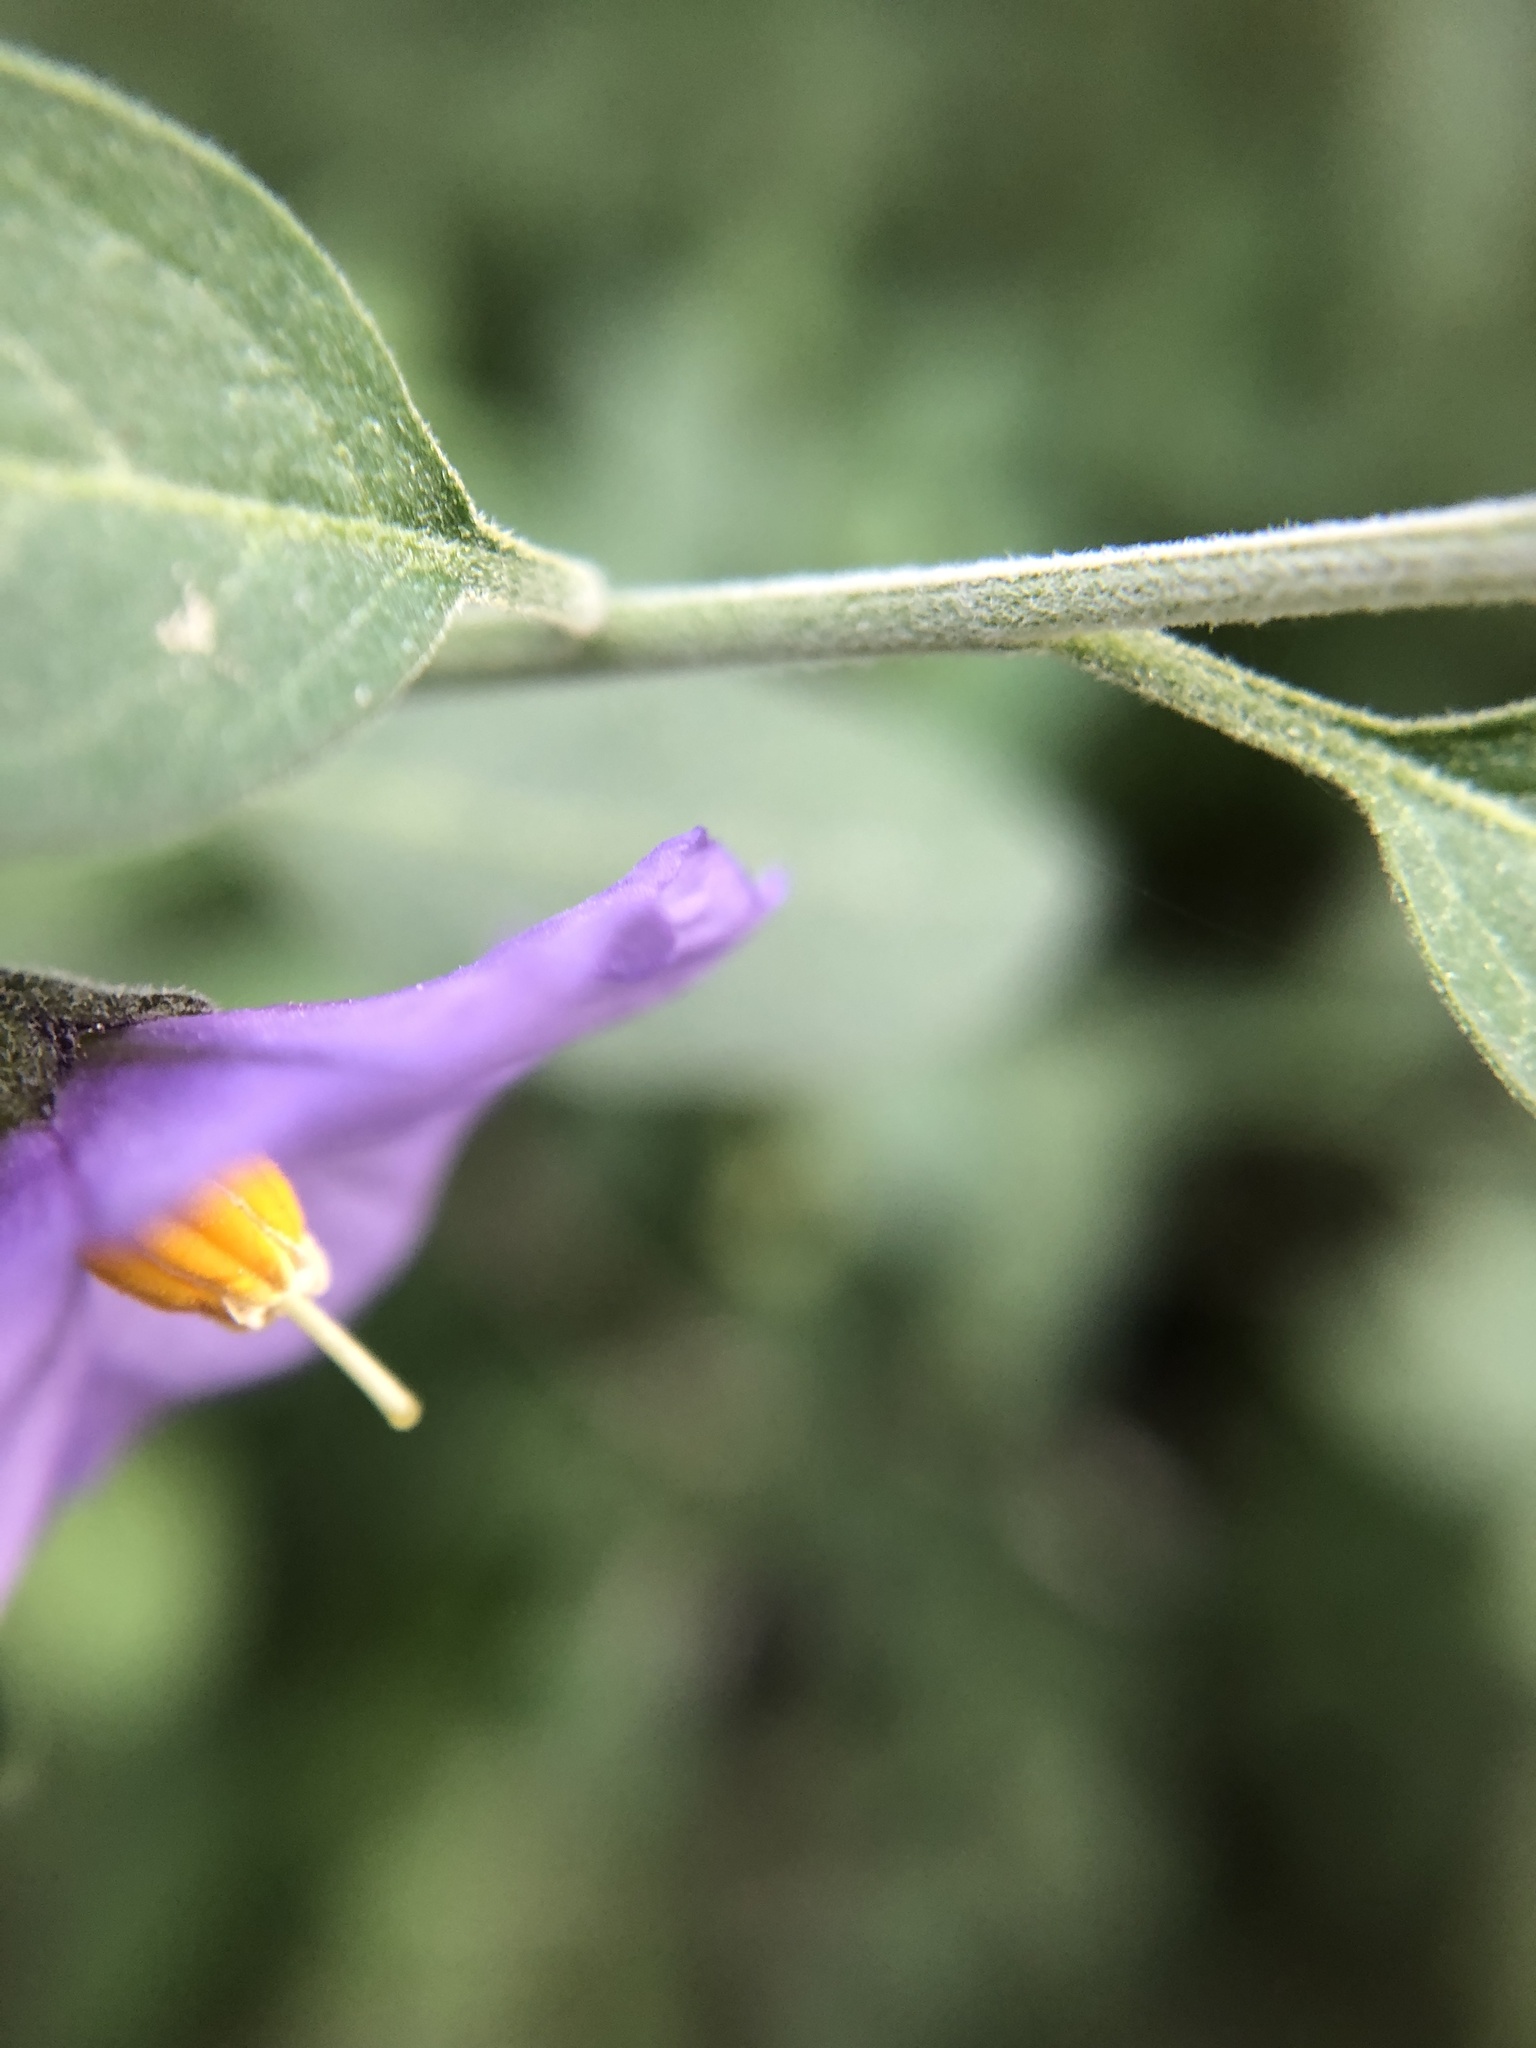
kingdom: Plantae
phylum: Tracheophyta
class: Magnoliopsida
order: Solanales
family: Solanaceae
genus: Solanum
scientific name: Solanum umbelliferum
